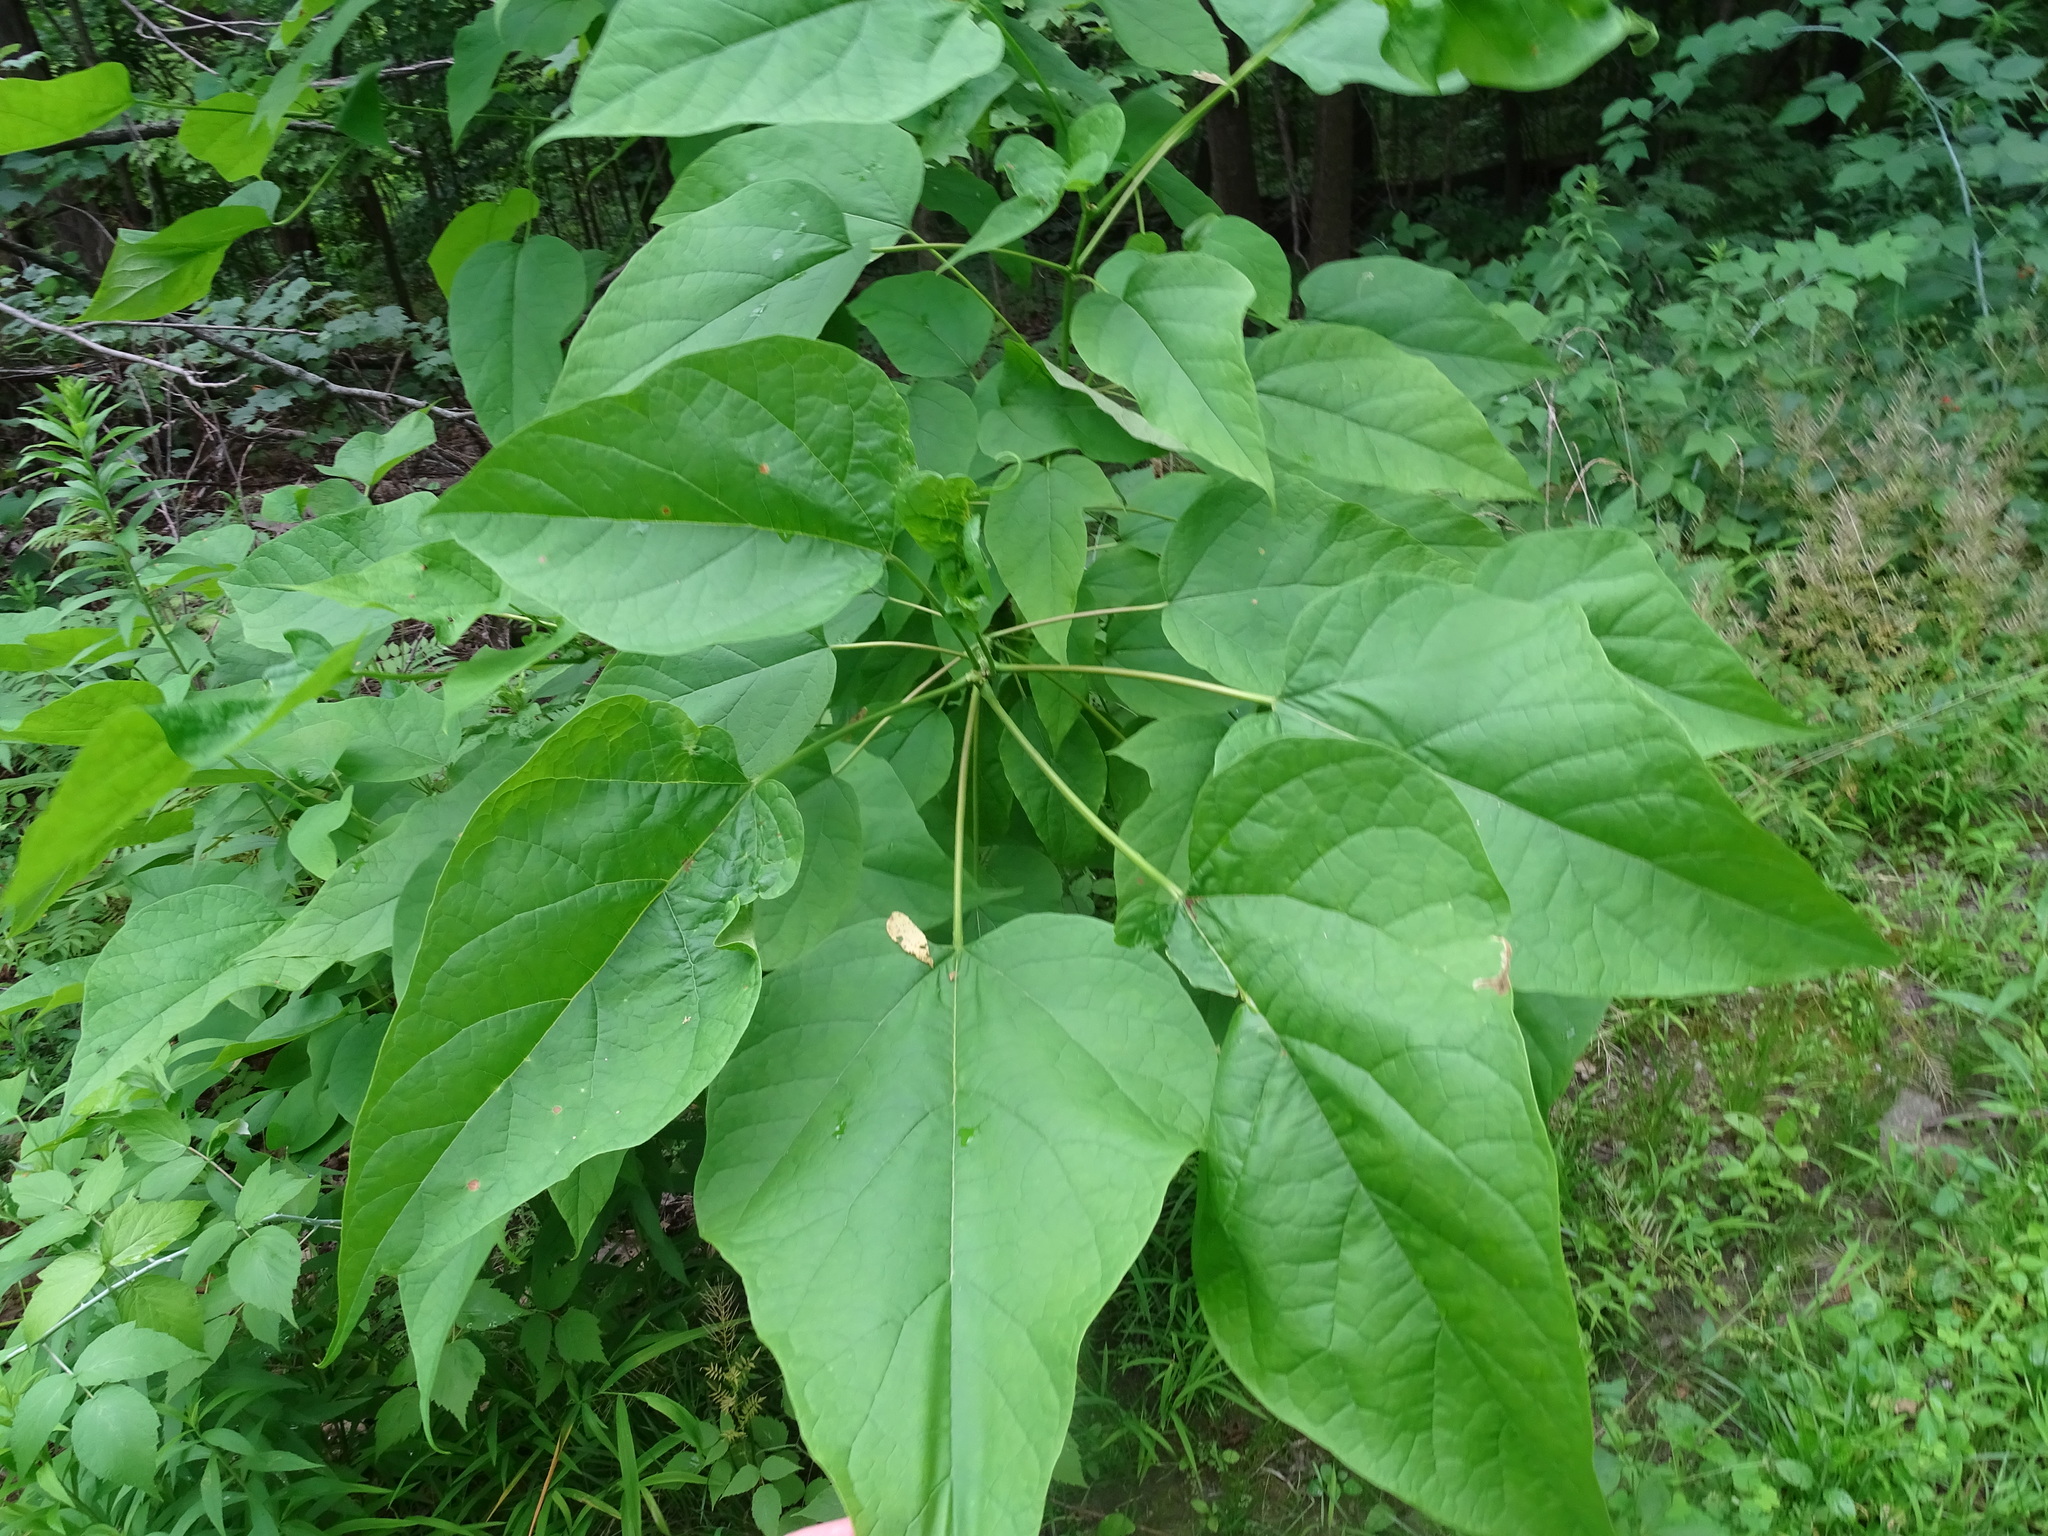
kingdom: Plantae
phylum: Tracheophyta
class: Magnoliopsida
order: Lamiales
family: Bignoniaceae
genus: Catalpa
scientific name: Catalpa speciosa
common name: Northern catalpa
